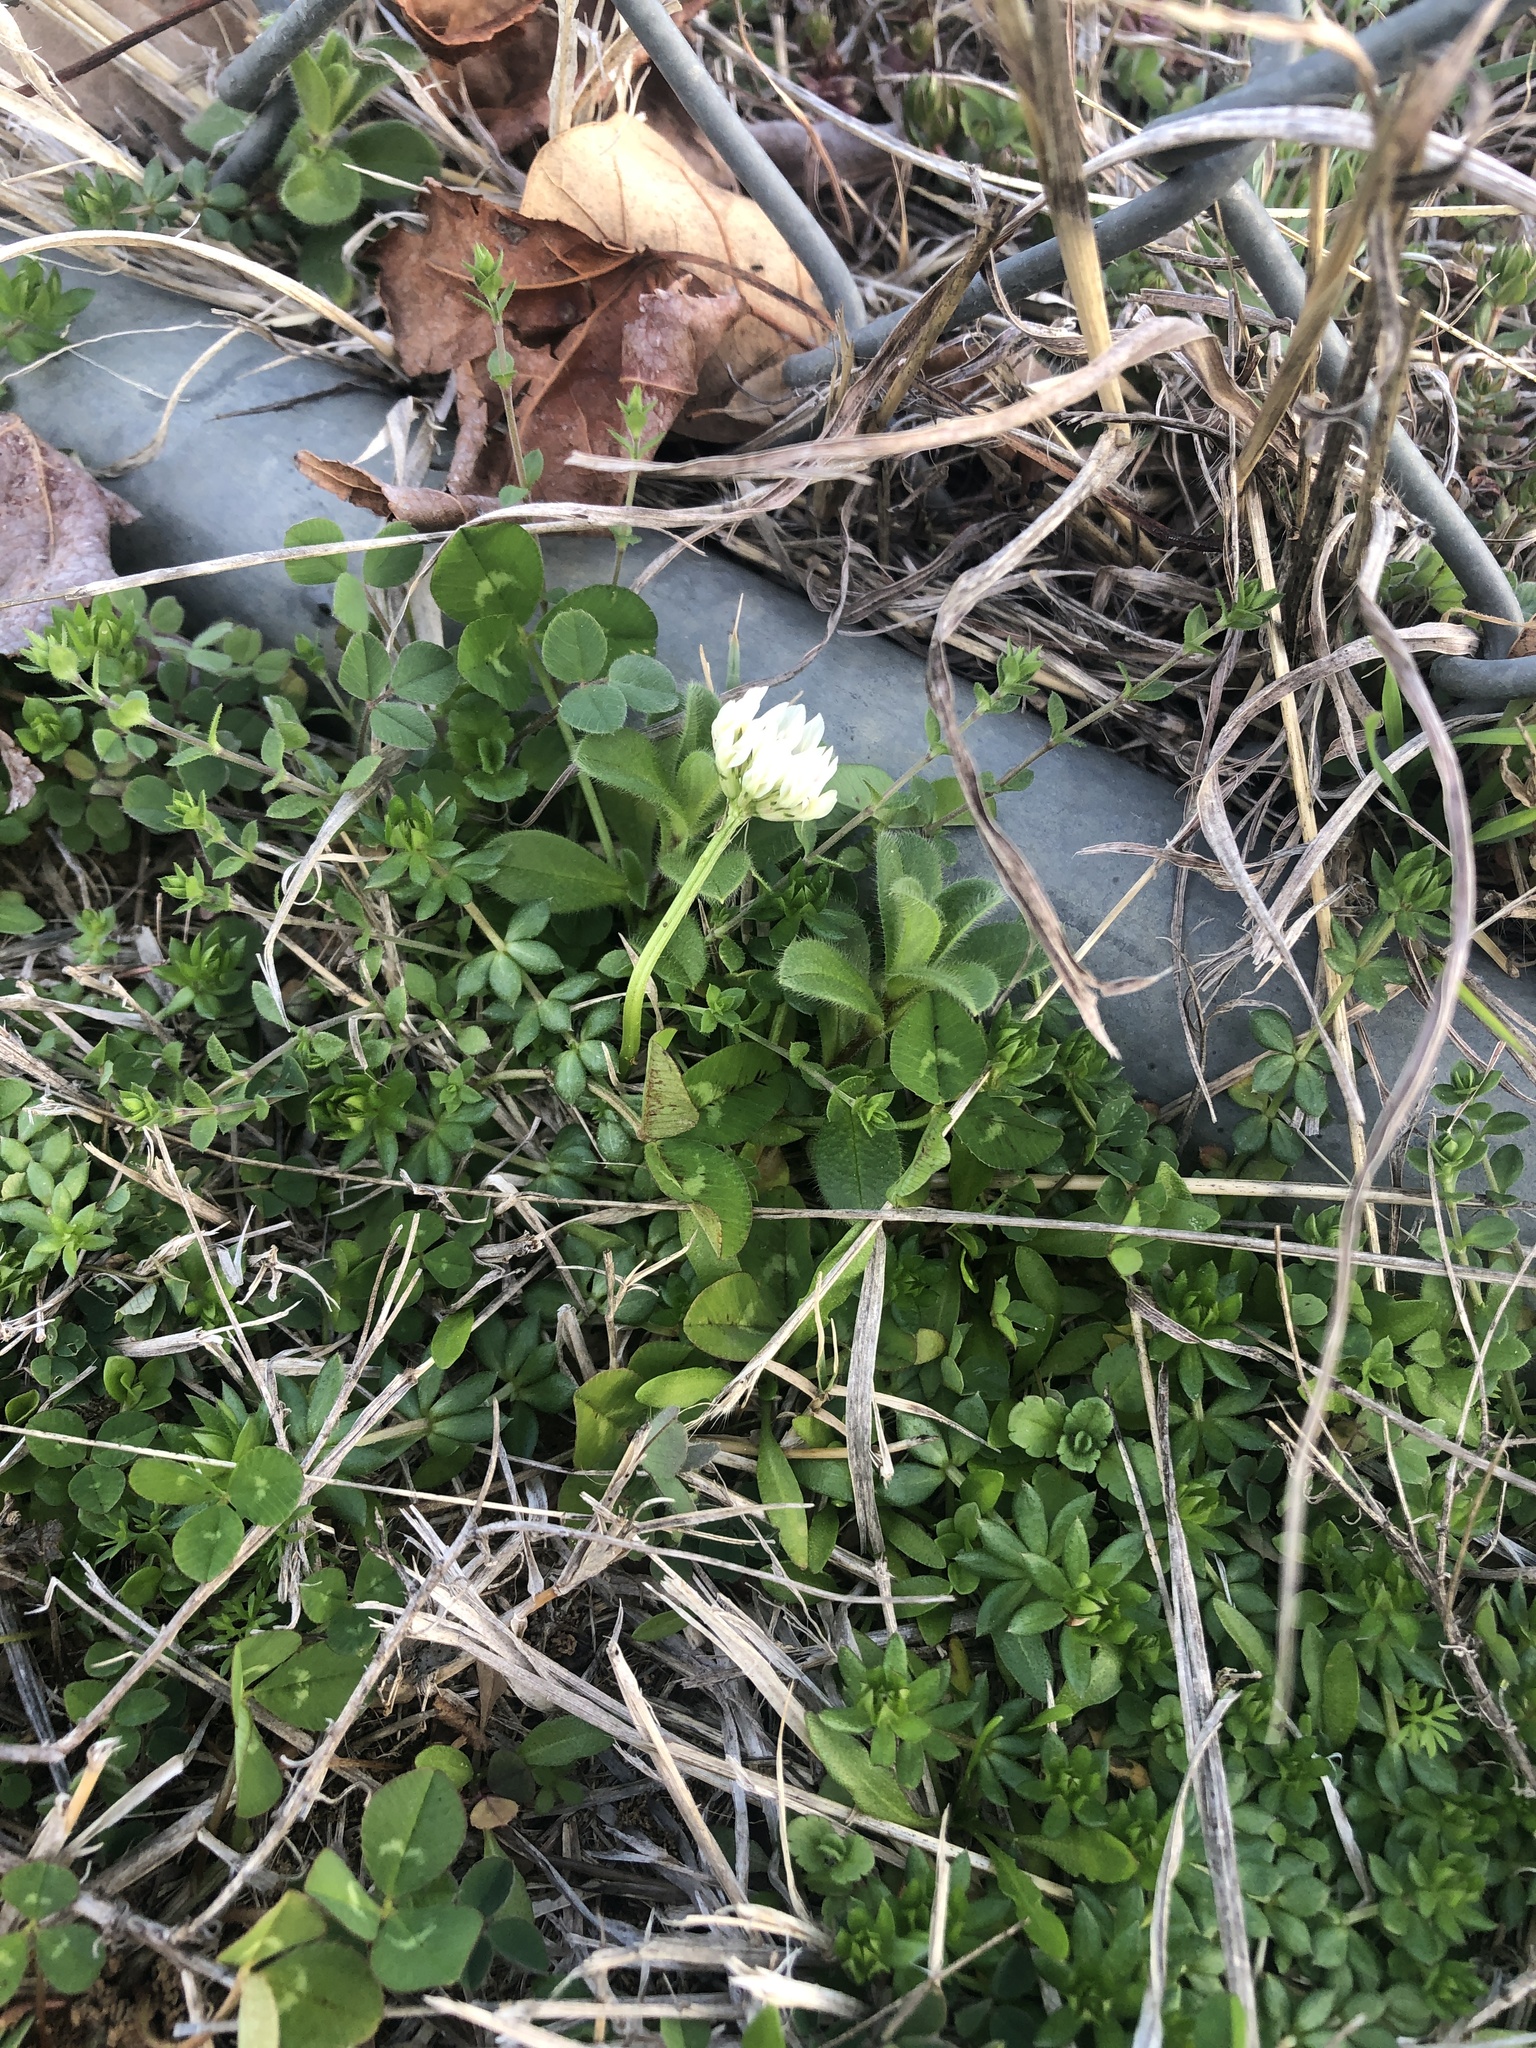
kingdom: Plantae
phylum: Tracheophyta
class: Magnoliopsida
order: Fabales
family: Fabaceae
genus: Trifolium
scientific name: Trifolium repens
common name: White clover
